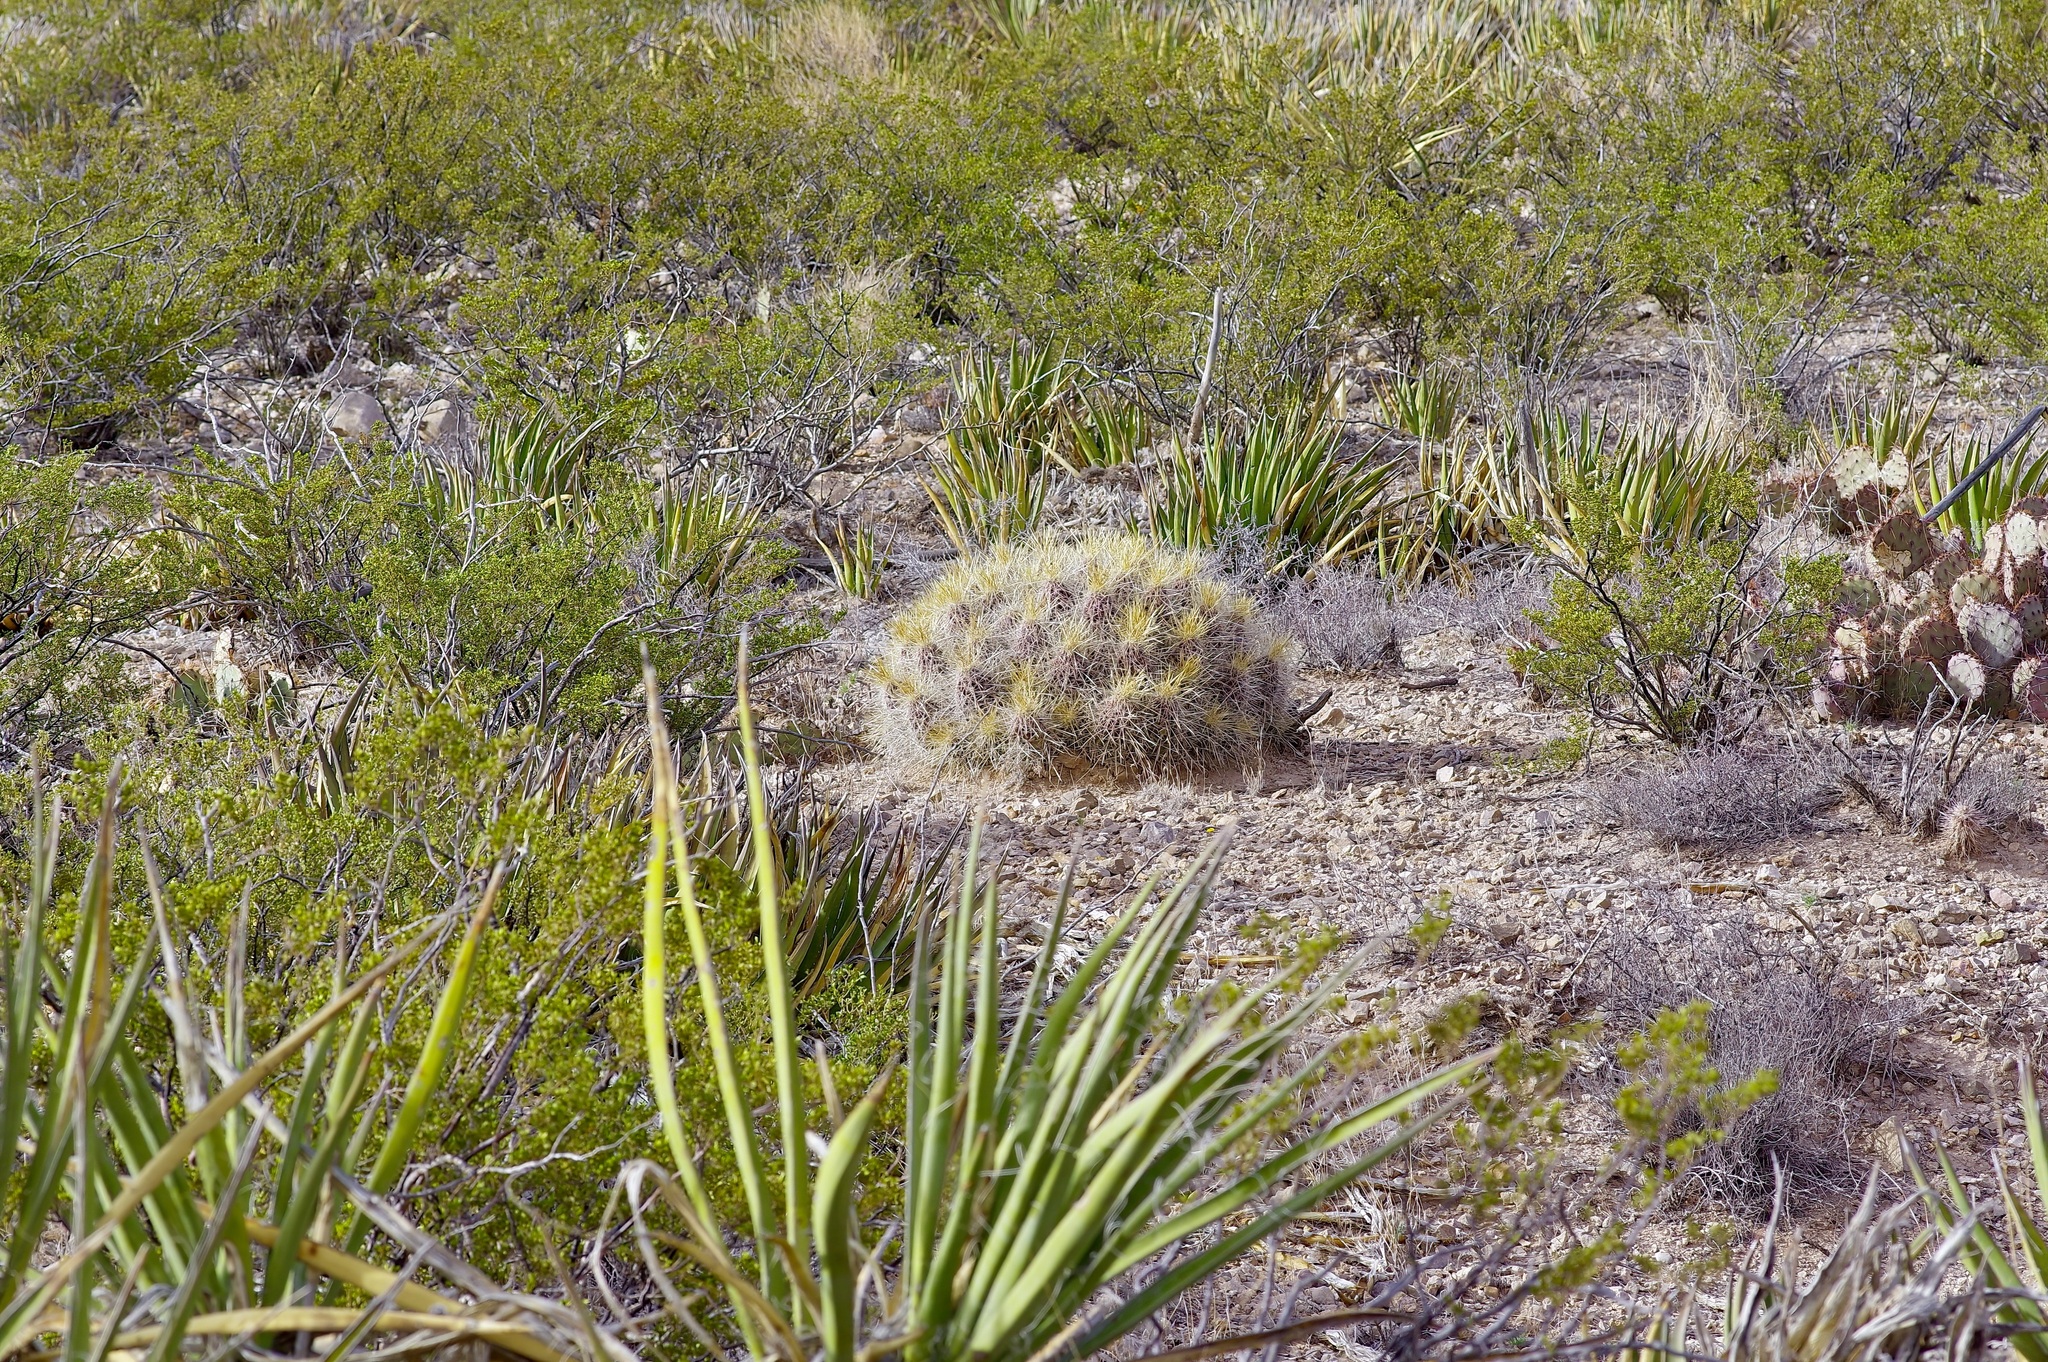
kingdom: Plantae
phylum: Tracheophyta
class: Magnoliopsida
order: Caryophyllales
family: Cactaceae
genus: Echinocereus
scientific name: Echinocereus stramineus
